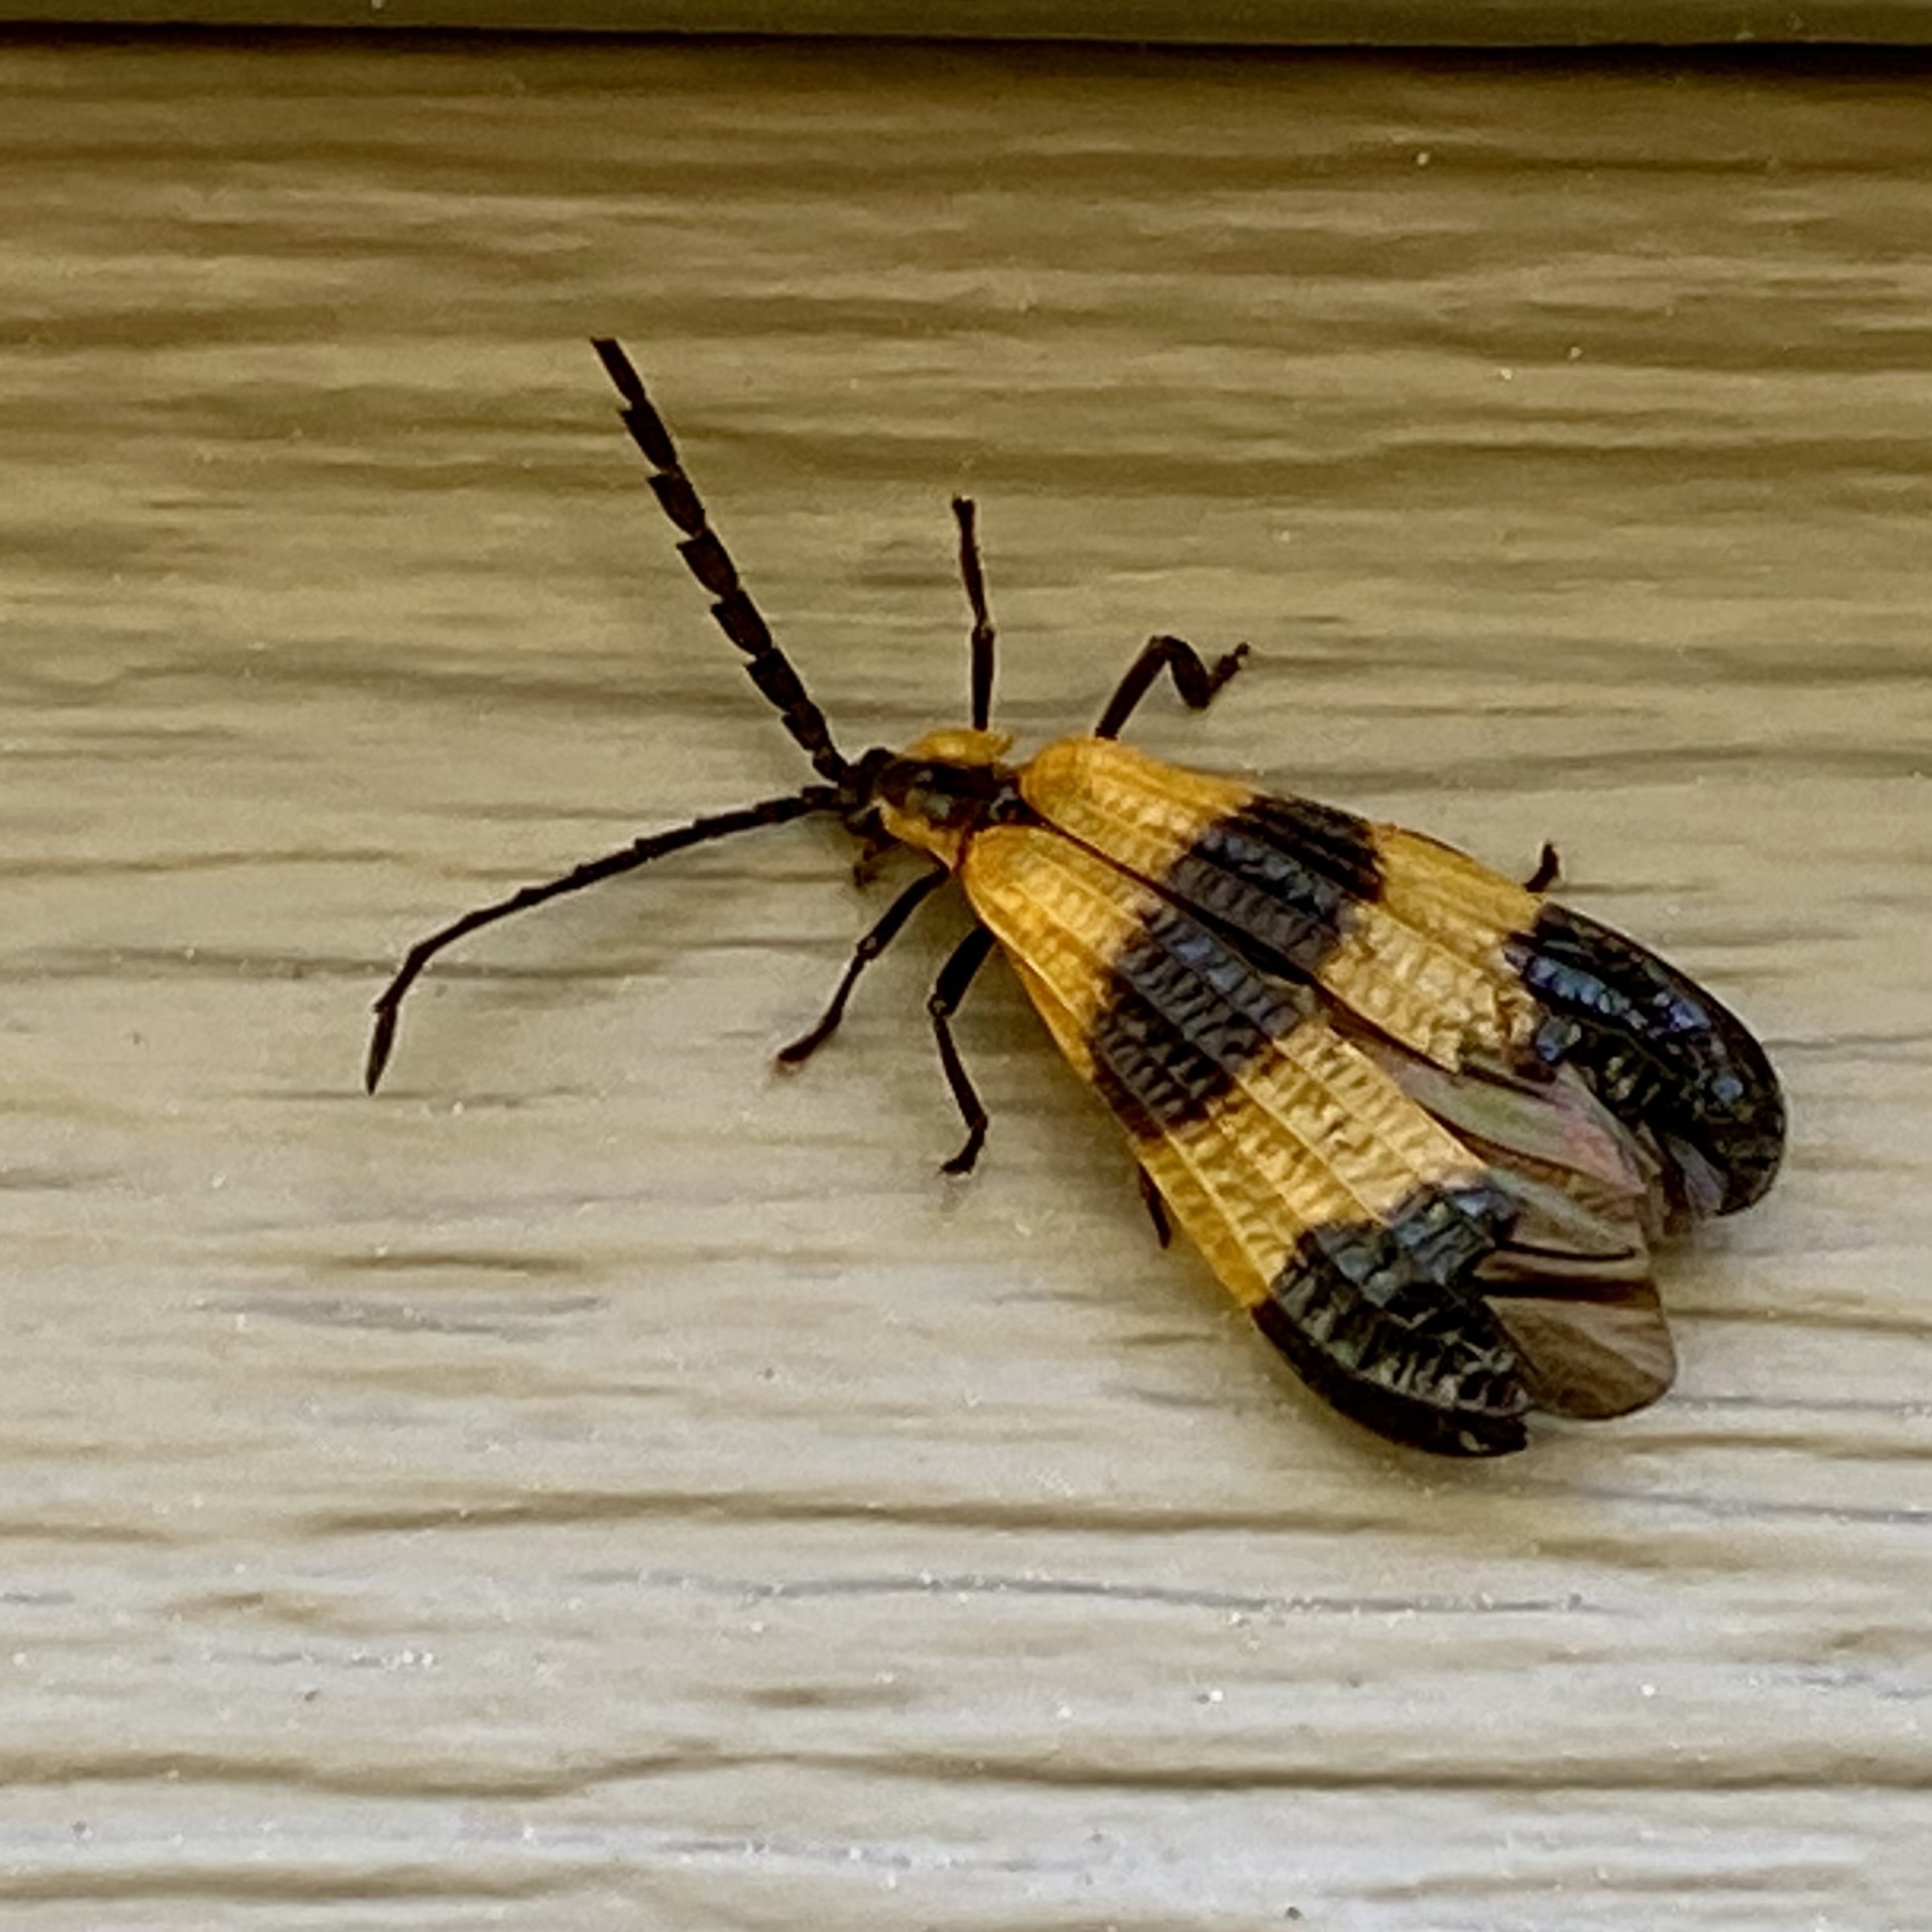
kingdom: Animalia
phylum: Arthropoda
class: Insecta
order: Coleoptera
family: Lycidae
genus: Calopteron
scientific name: Calopteron terminale
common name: End band net-winged beetle
